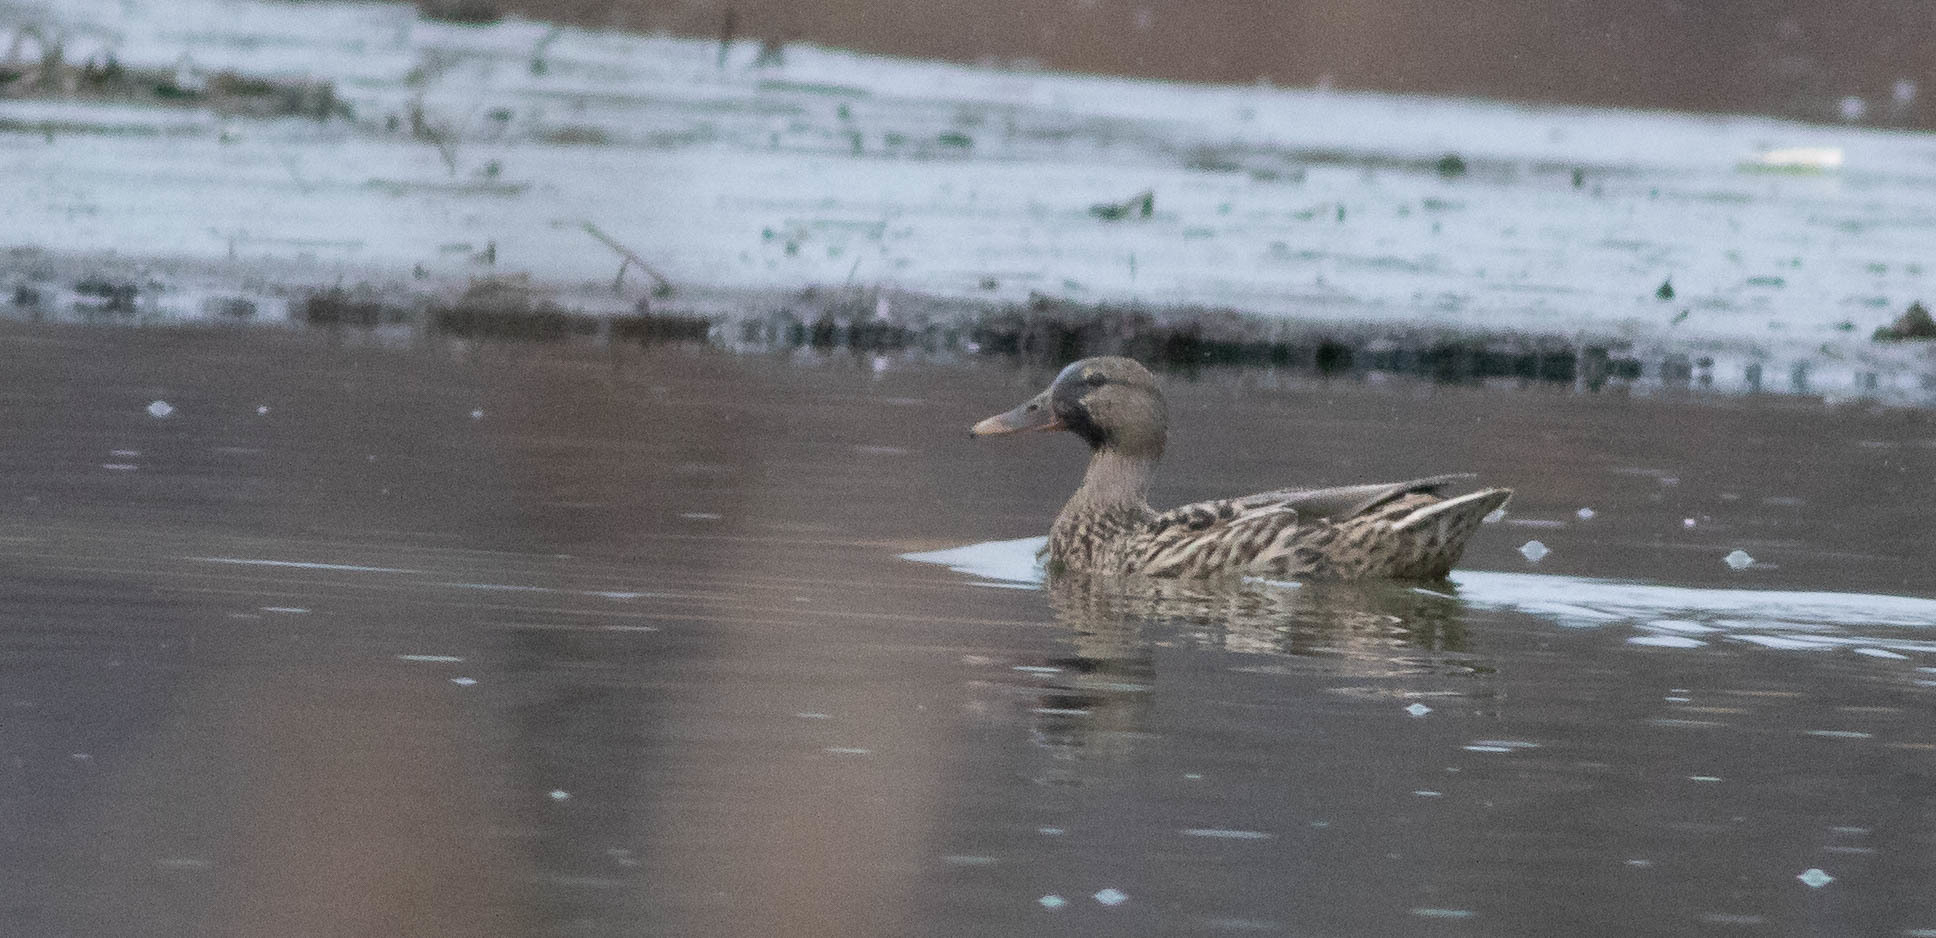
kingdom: Animalia
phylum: Chordata
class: Aves
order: Anseriformes
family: Anatidae
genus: Anas
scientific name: Anas platyrhynchos
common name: Mallard
